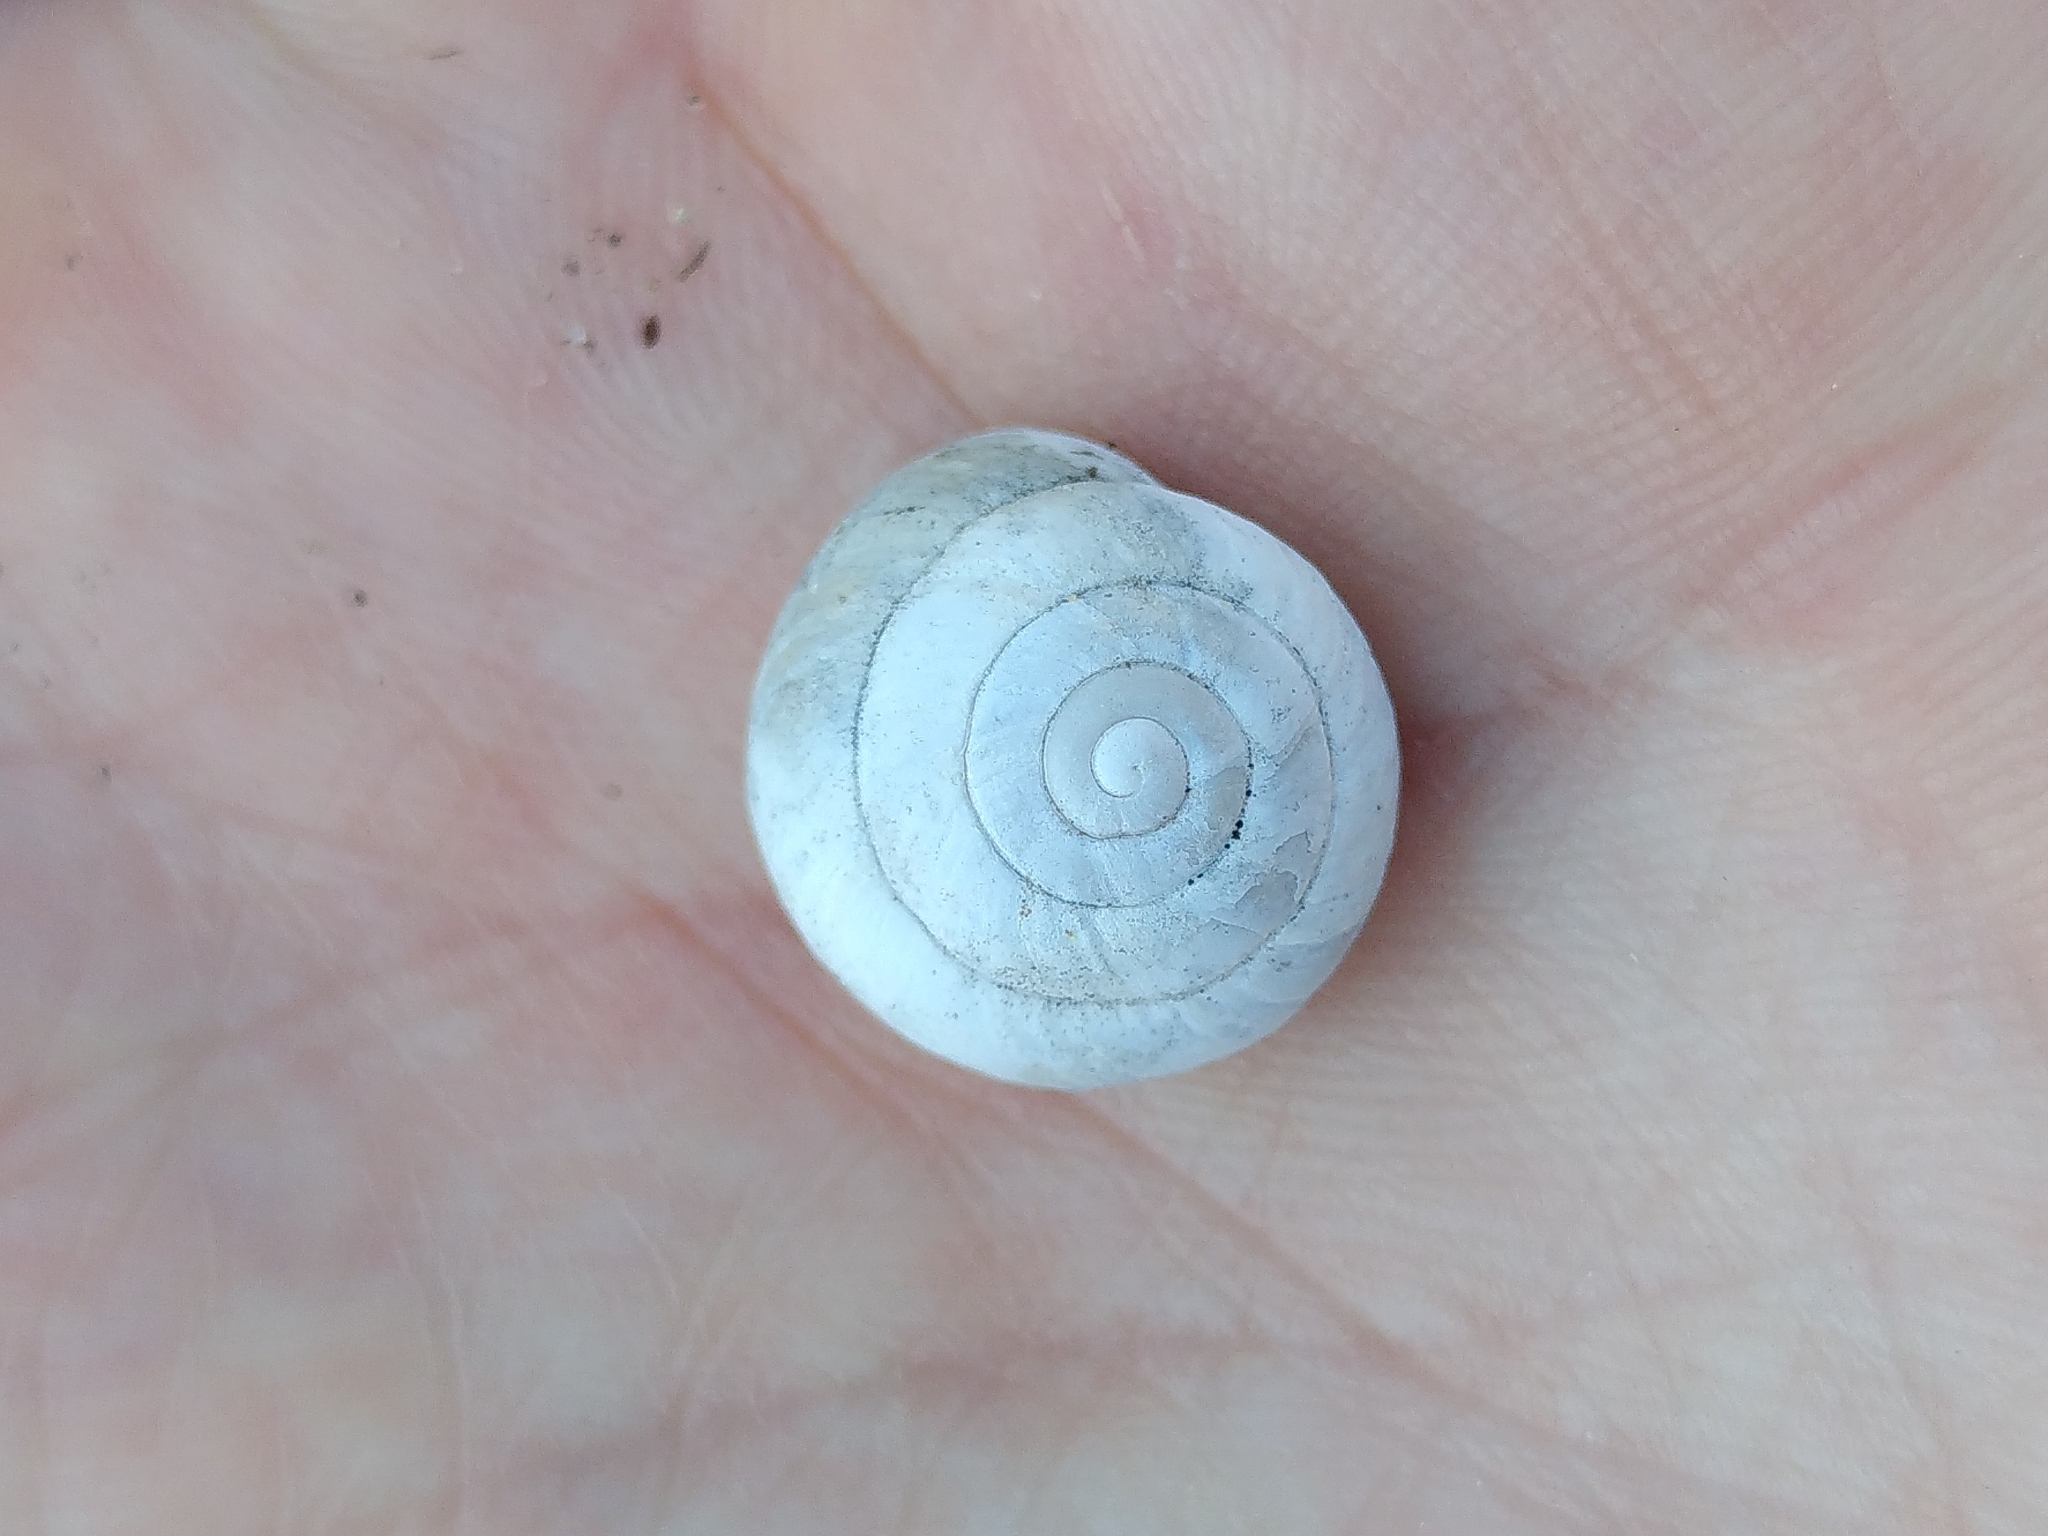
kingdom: Animalia
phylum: Mollusca
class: Gastropoda
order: Stylommatophora
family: Sphincterochilidae
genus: Sphincterochila
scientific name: Sphincterochila candidissima
